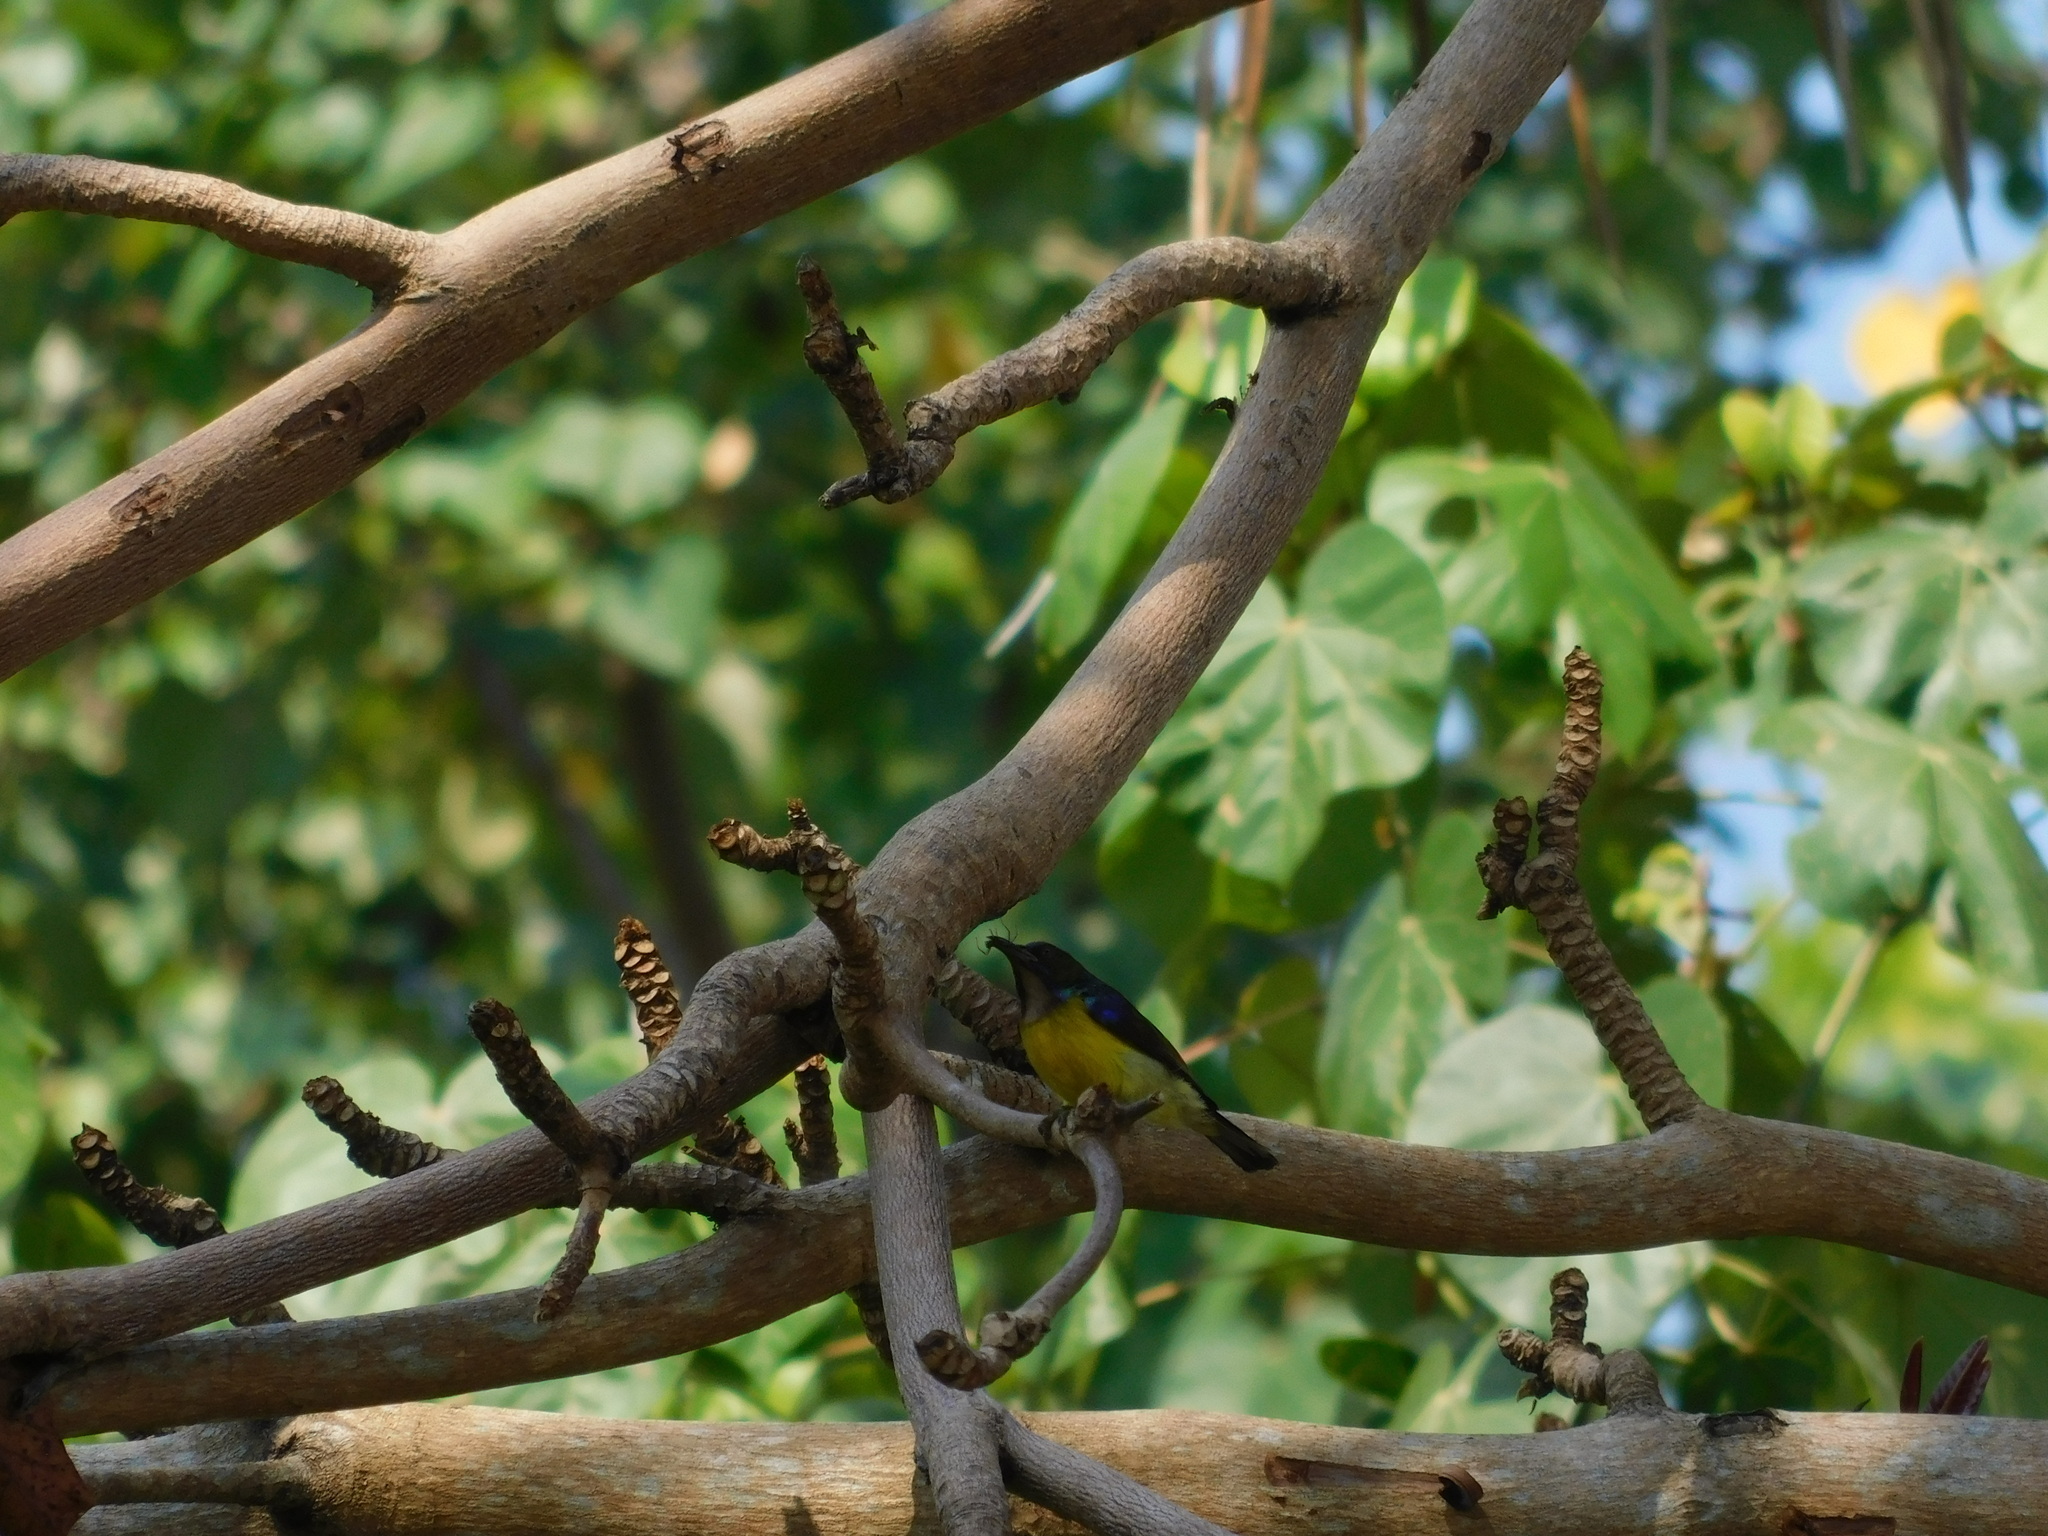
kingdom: Animalia
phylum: Chordata
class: Aves
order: Passeriformes
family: Nectariniidae
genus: Anthreptes
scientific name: Anthreptes malacensis
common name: Brown-throated sunbird
